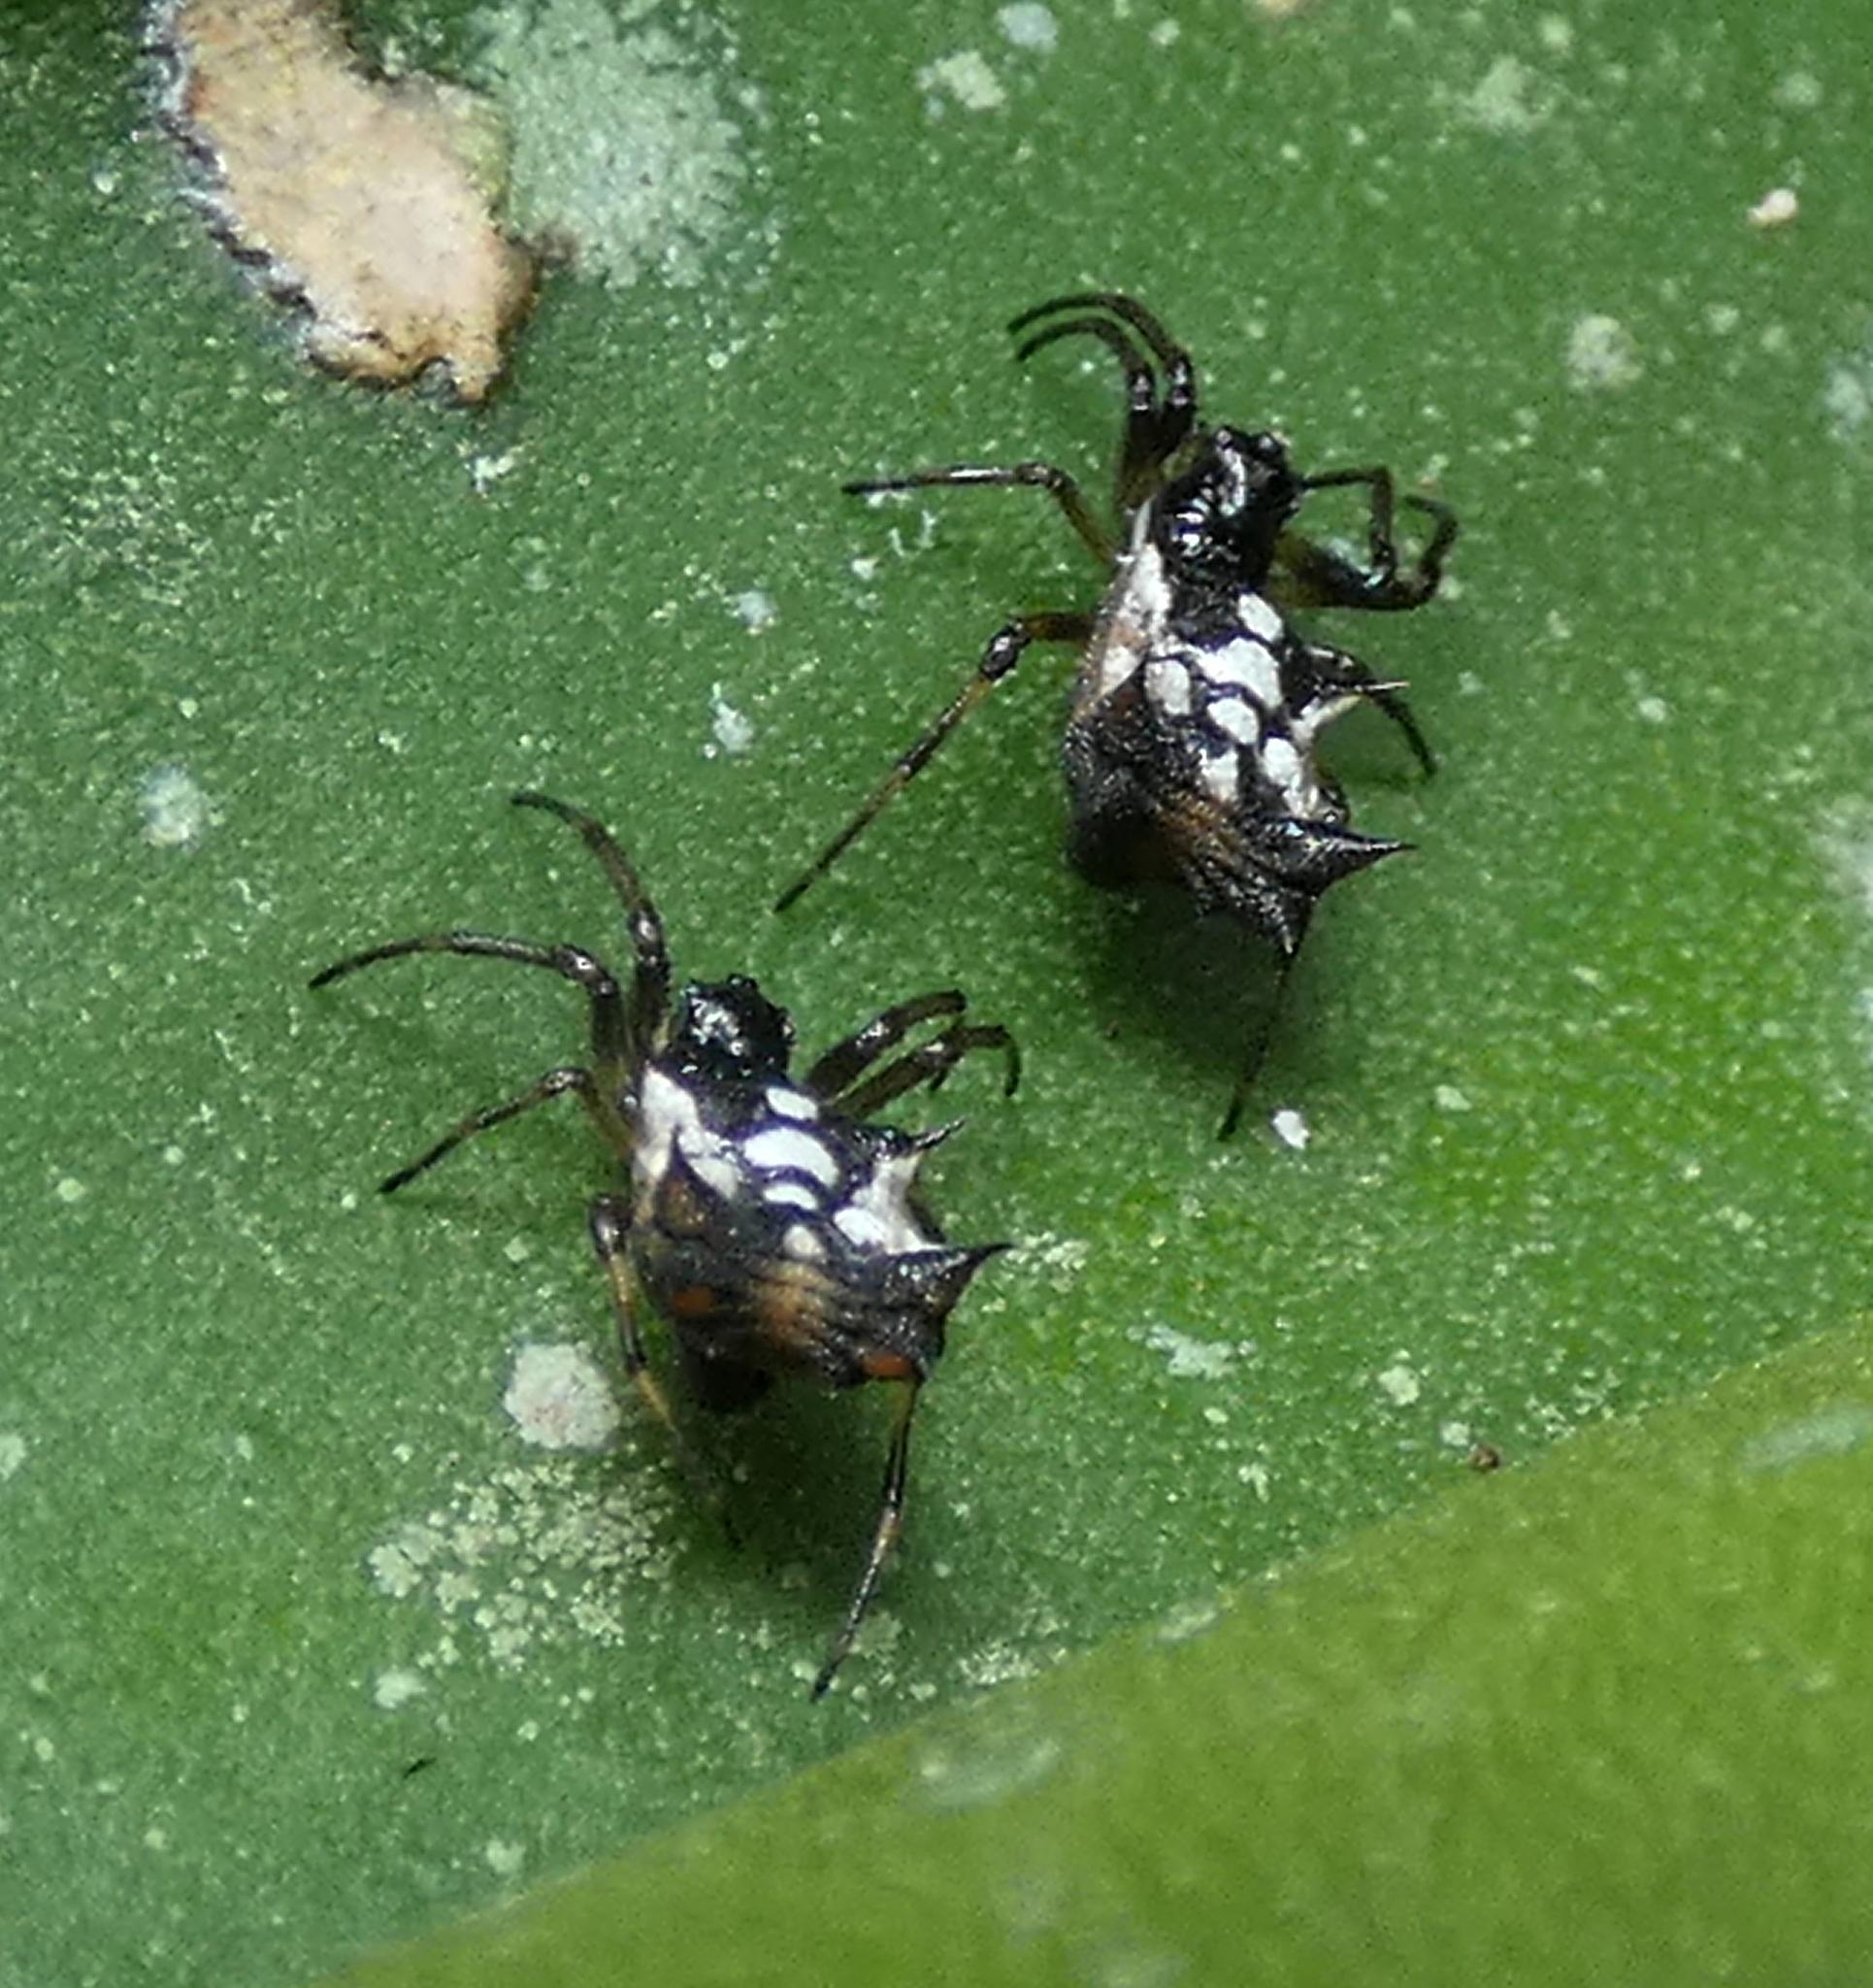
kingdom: Animalia
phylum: Arthropoda
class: Arachnida
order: Araneae
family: Araneidae
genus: Micrathena
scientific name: Micrathena picta
